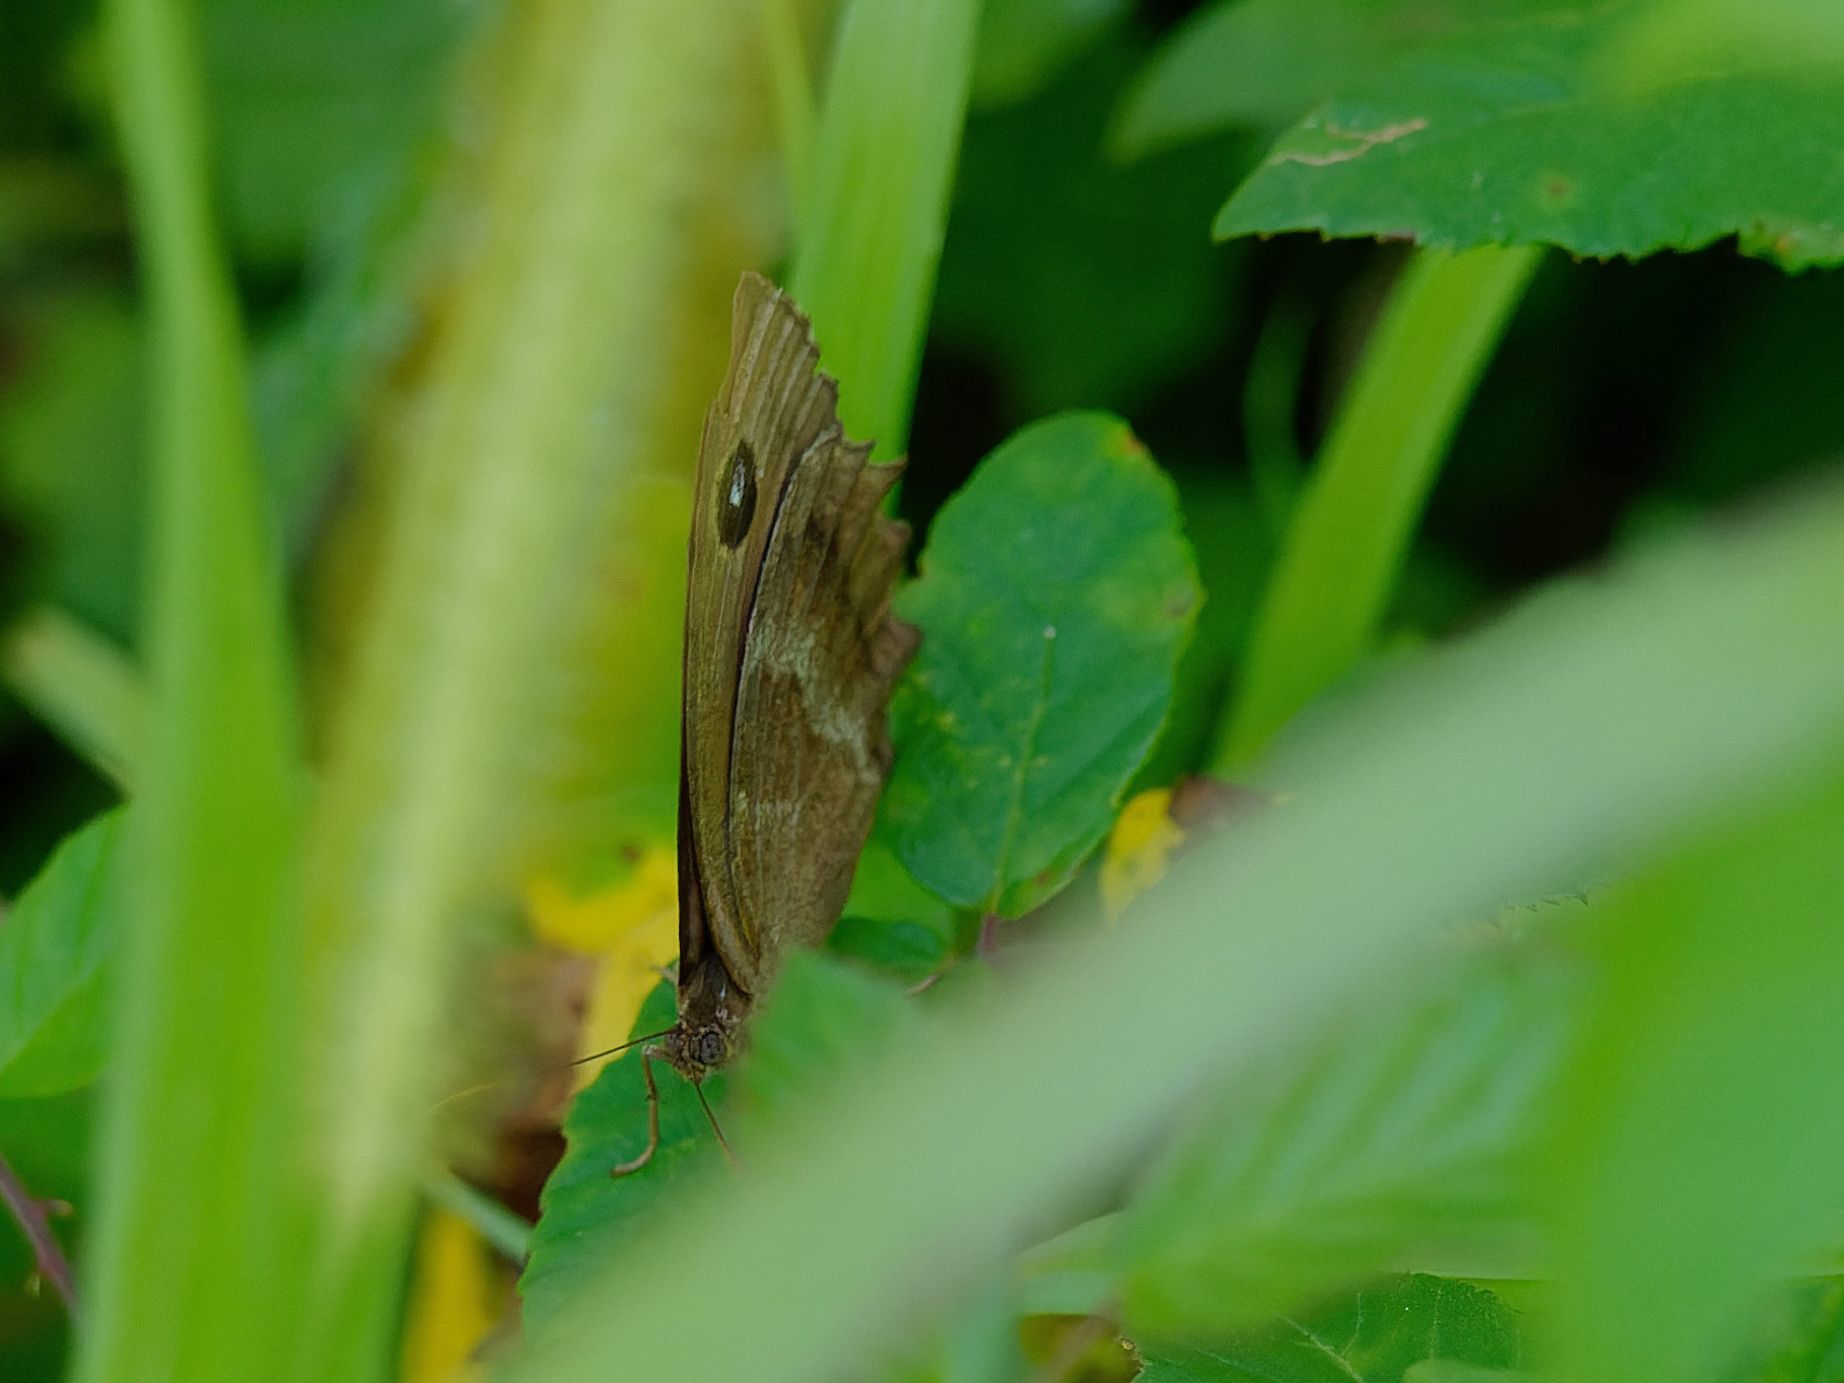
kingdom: Animalia
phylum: Arthropoda
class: Insecta
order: Lepidoptera
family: Nymphalidae
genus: Minois
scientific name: Minois dryas
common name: Dryad
